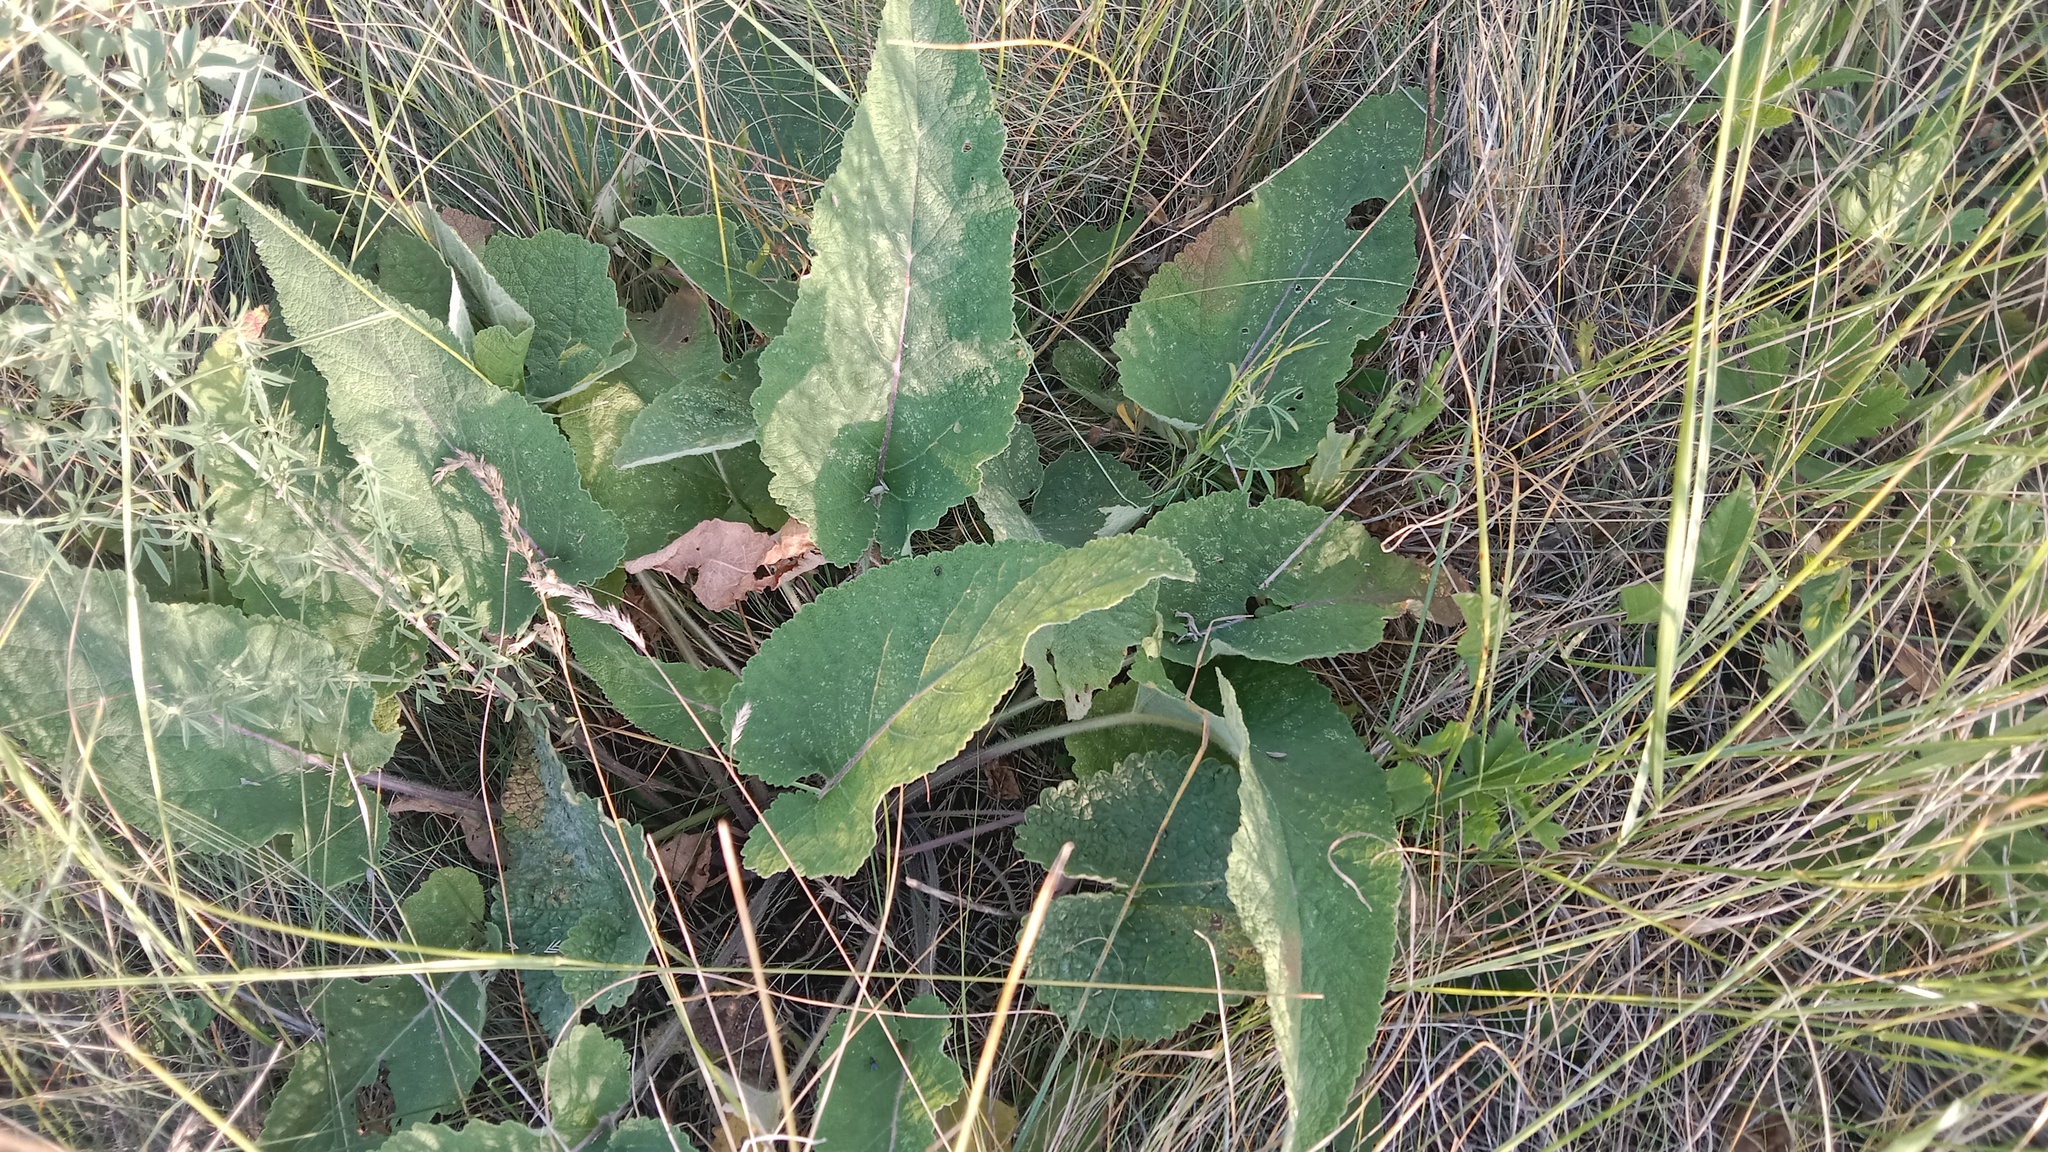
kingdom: Plantae
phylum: Tracheophyta
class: Magnoliopsida
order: Lamiales
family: Lamiaceae
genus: Salvia
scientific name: Salvia nutans
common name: Nodding sage
